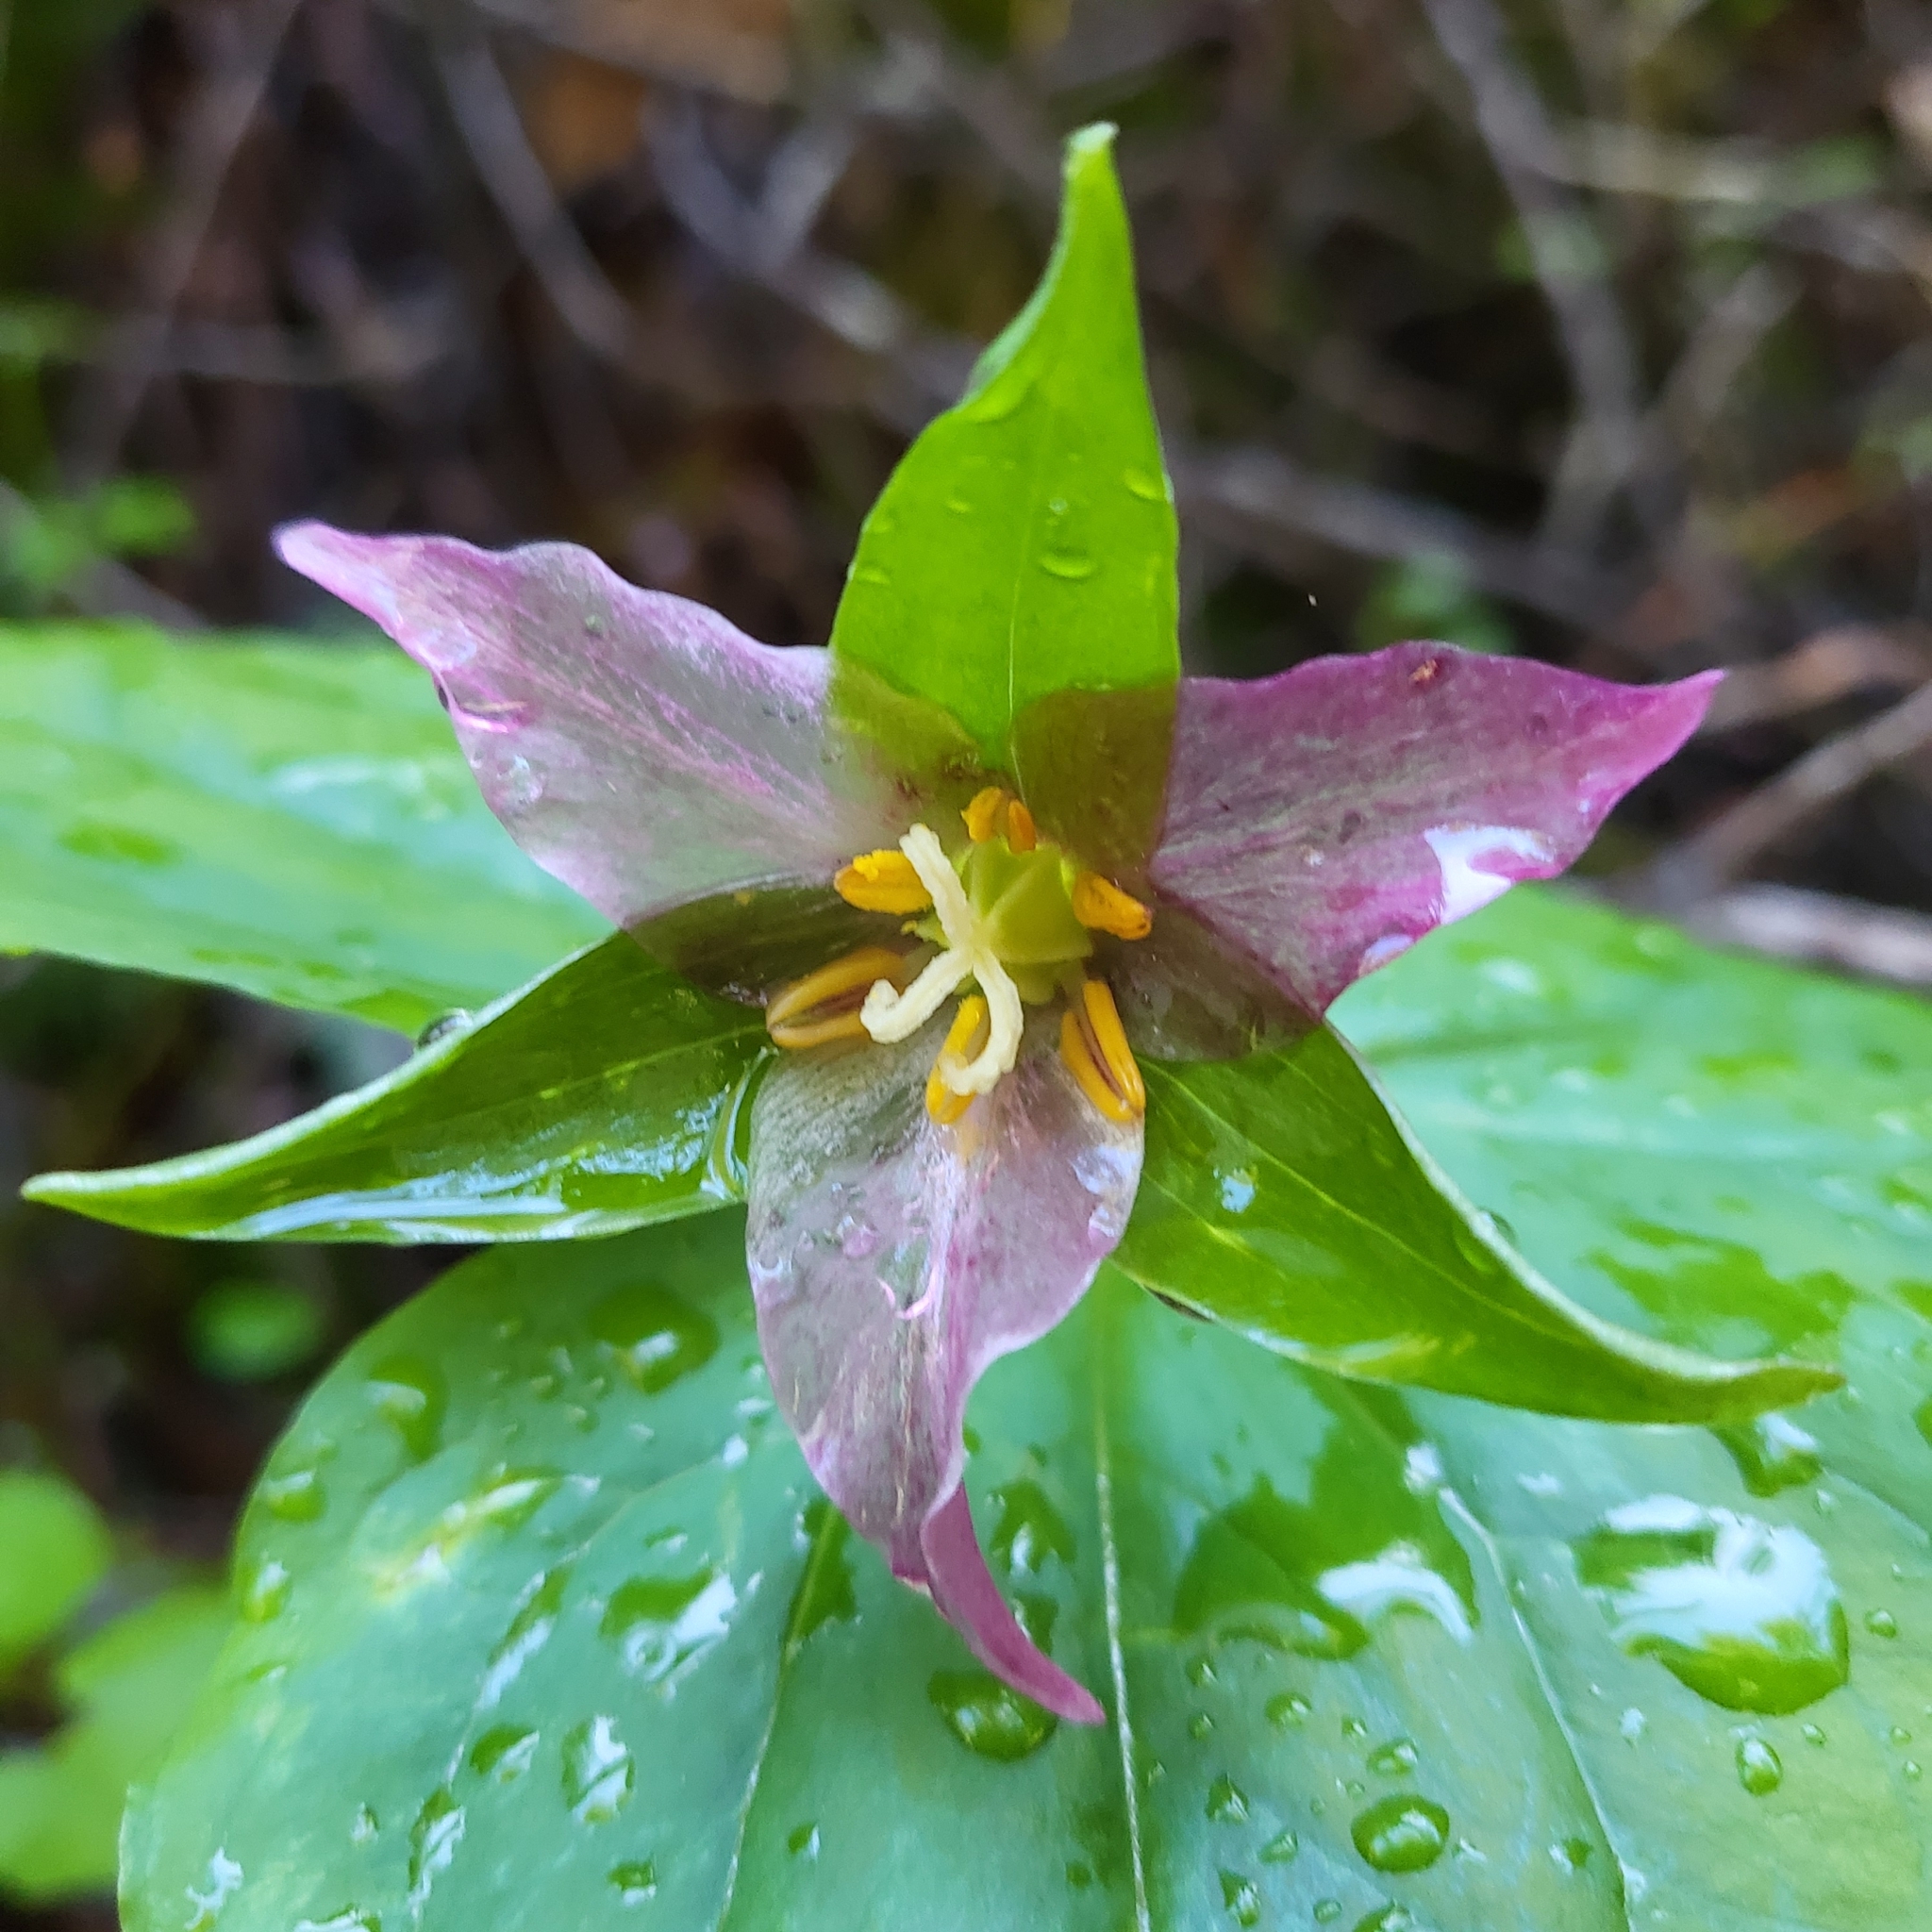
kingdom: Plantae
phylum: Tracheophyta
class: Liliopsida
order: Liliales
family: Melanthiaceae
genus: Trillium
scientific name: Trillium ovatum
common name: Pacific trillium
